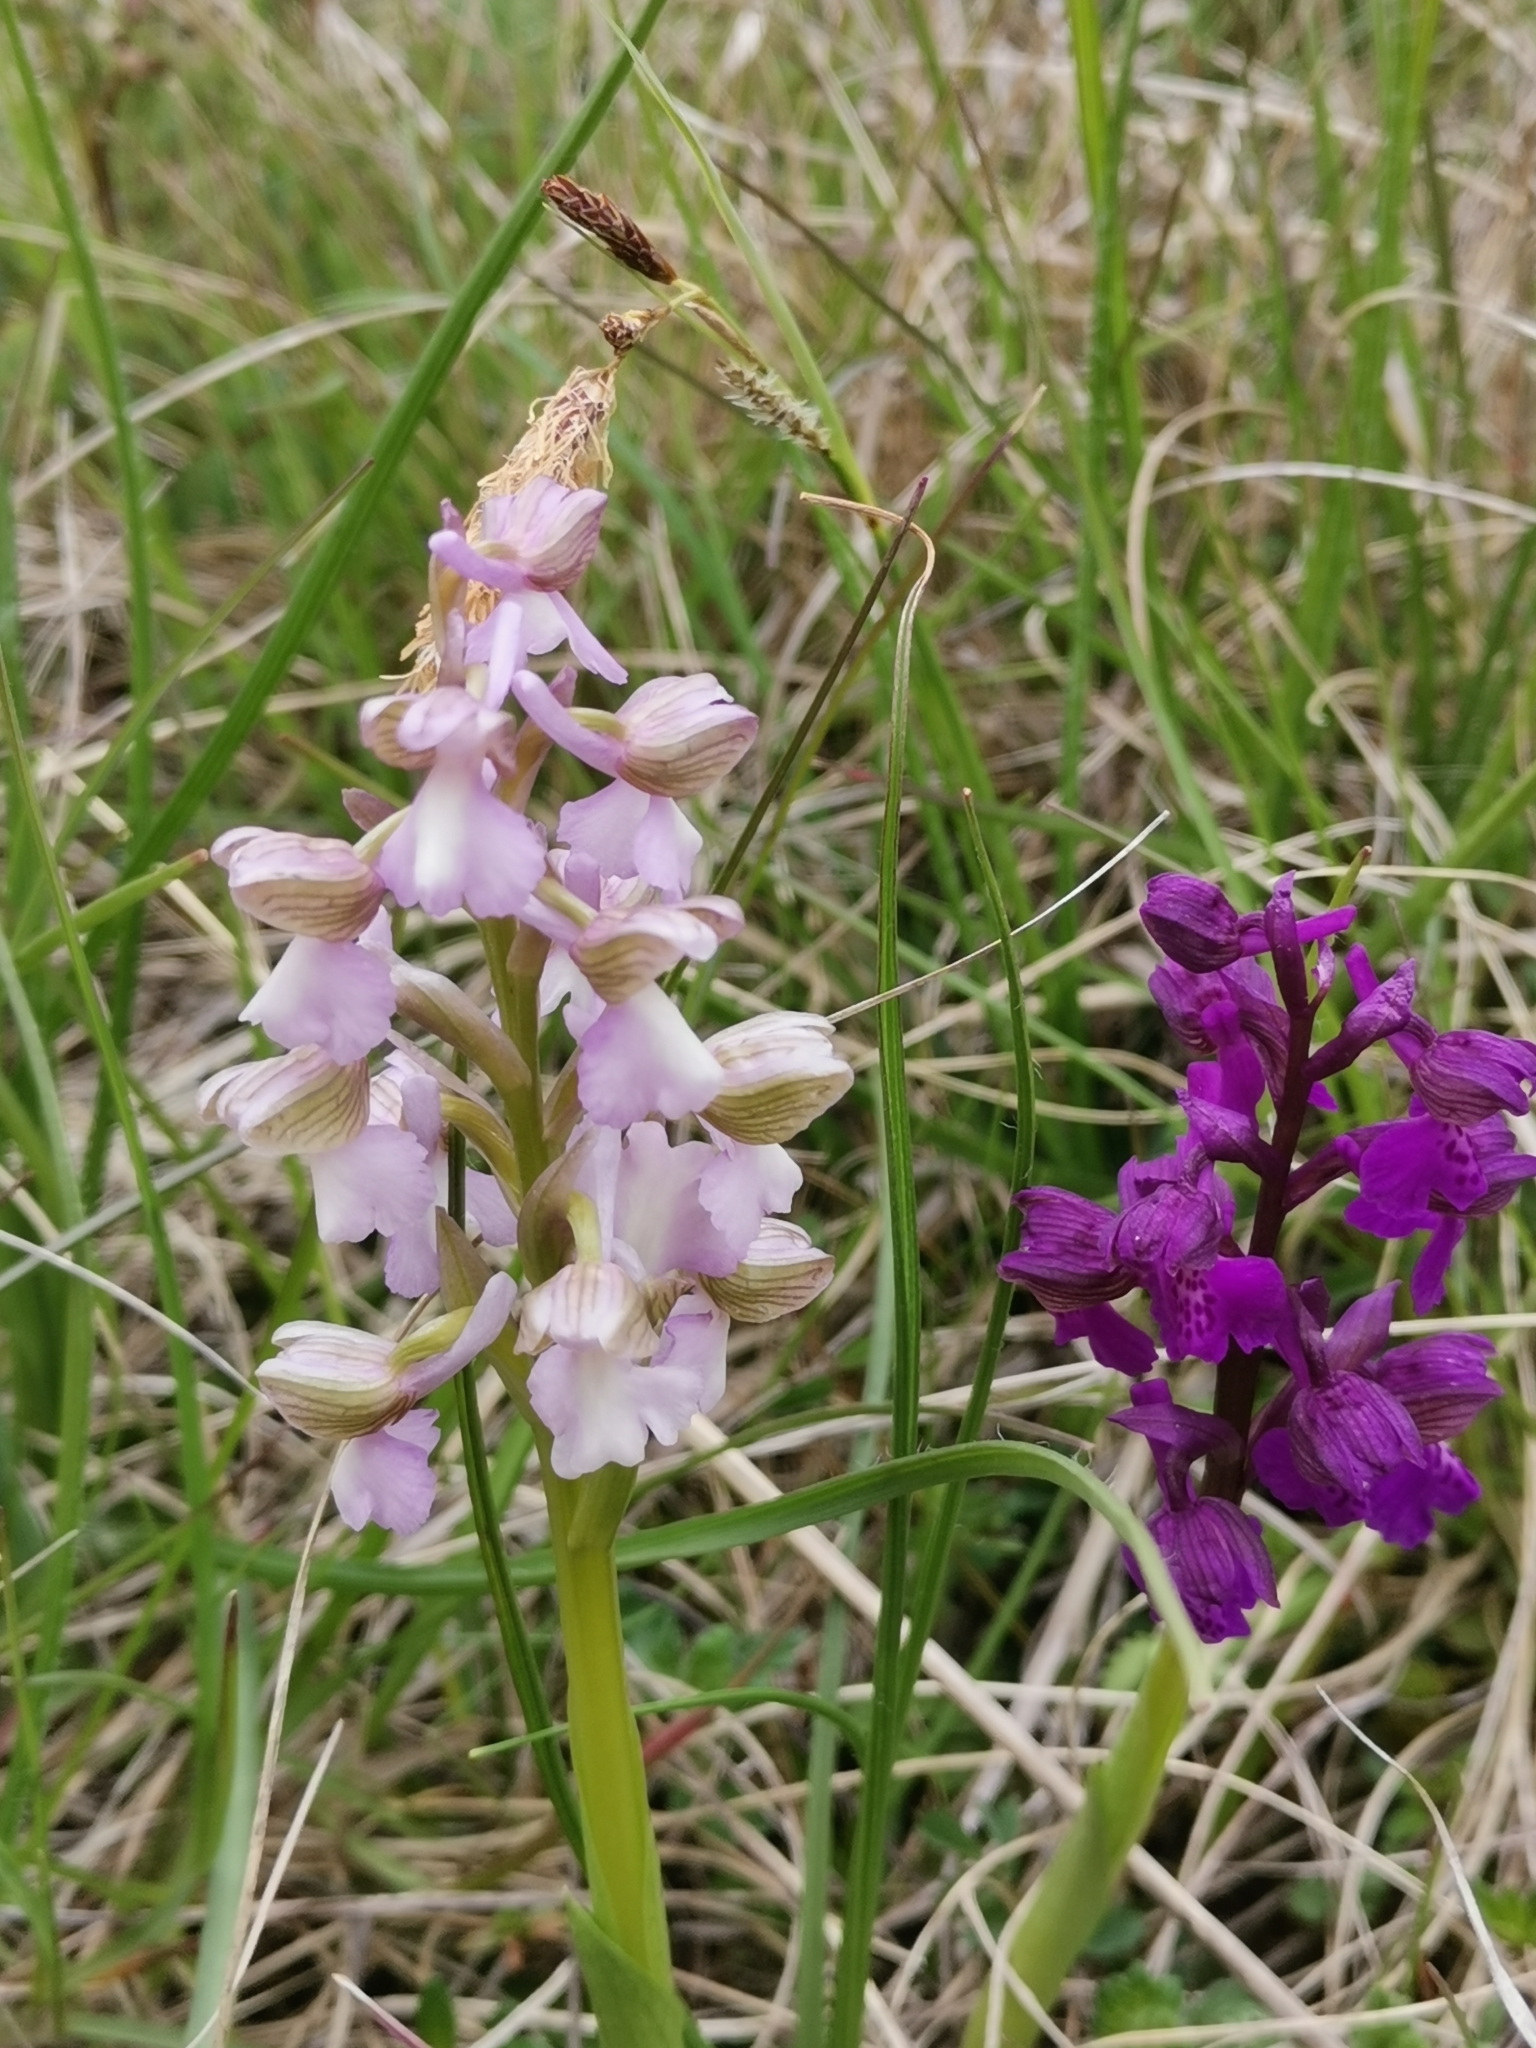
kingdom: Plantae
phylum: Tracheophyta
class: Liliopsida
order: Asparagales
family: Orchidaceae
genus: Anacamptis
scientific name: Anacamptis morio
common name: Green-winged orchid
